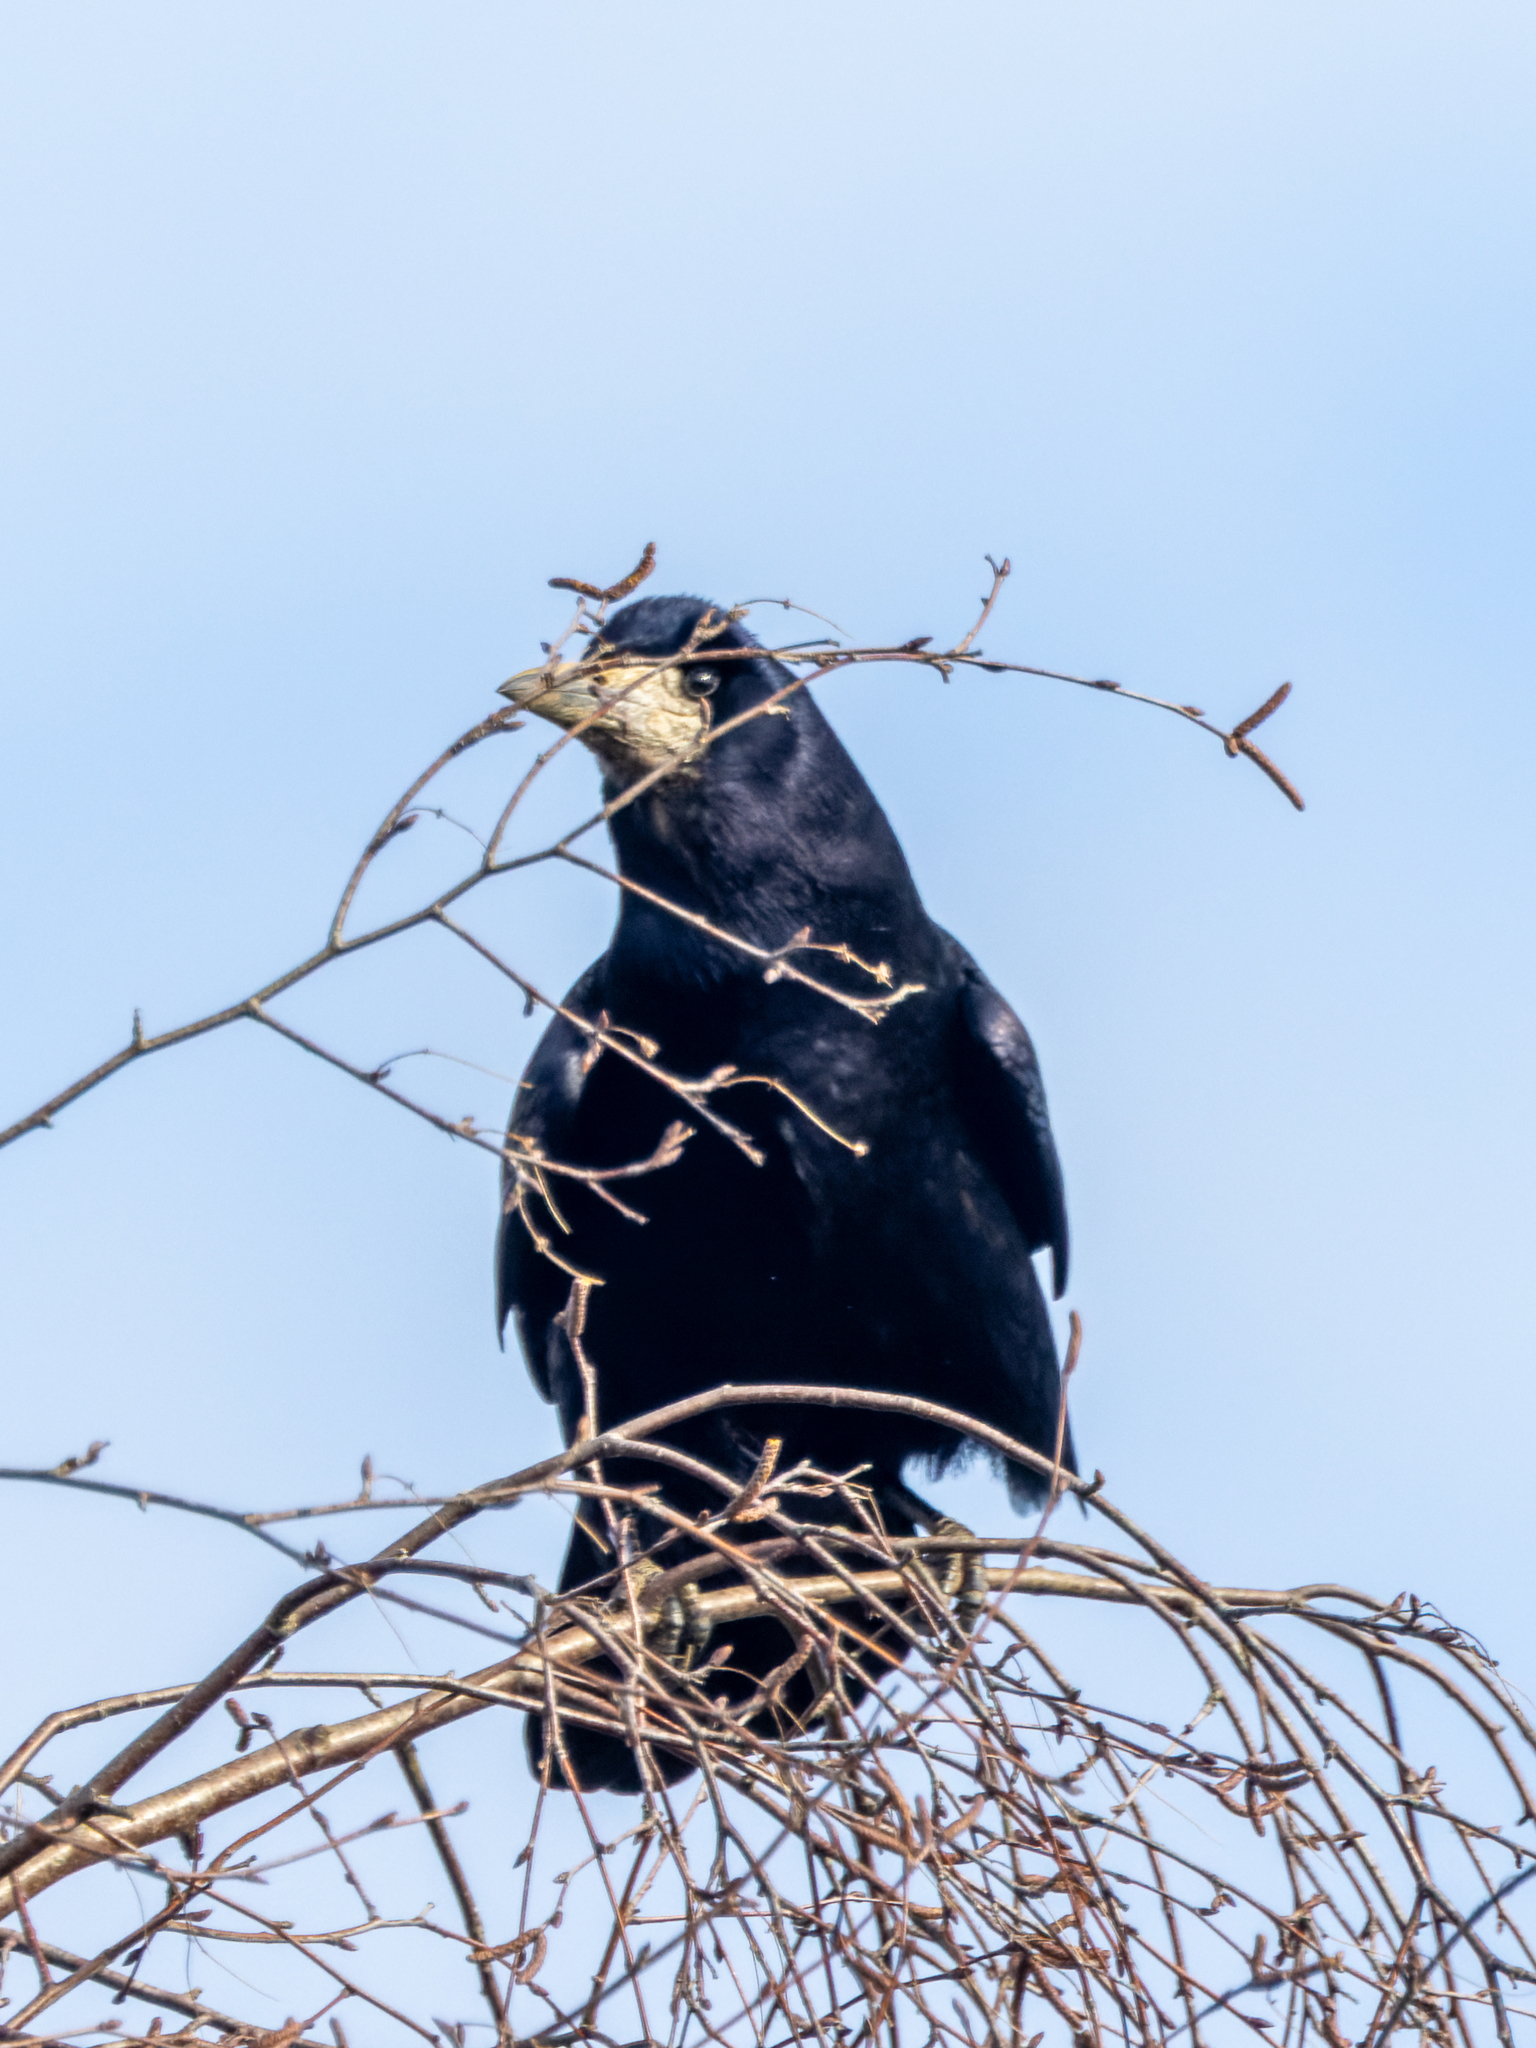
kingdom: Animalia
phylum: Chordata
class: Aves
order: Passeriformes
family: Corvidae
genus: Corvus
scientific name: Corvus frugilegus
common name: Rook
